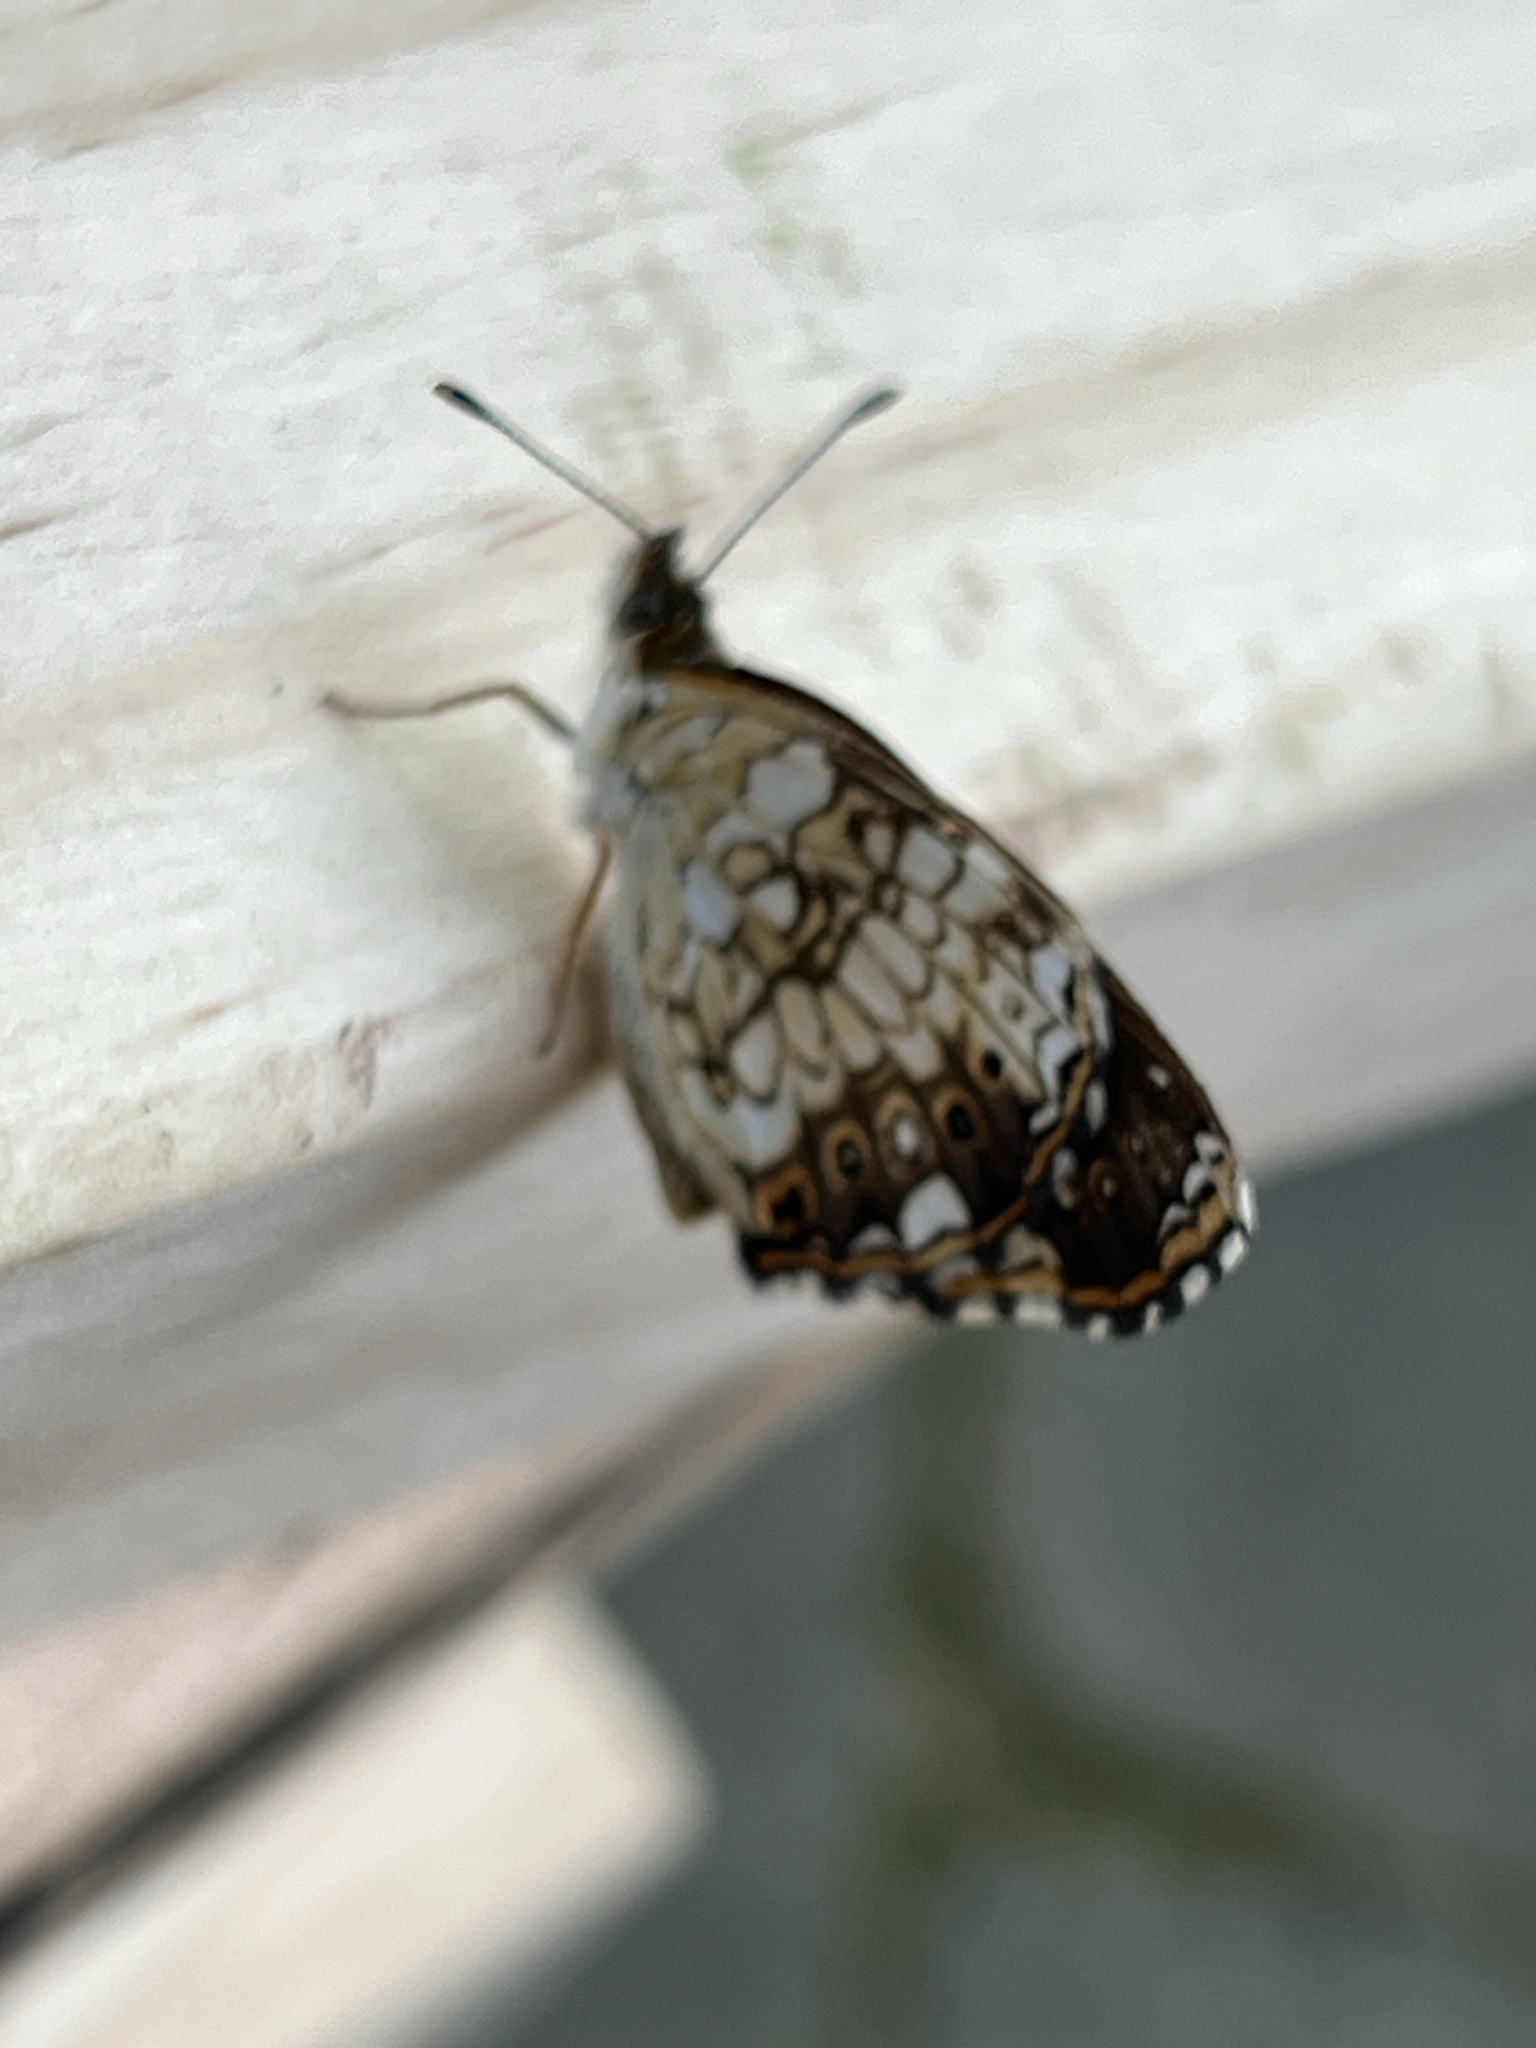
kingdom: Animalia
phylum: Arthropoda
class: Insecta
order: Lepidoptera
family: Nymphalidae
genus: Chlosyne
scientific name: Chlosyne nycteis
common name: Silvery checkerspot
